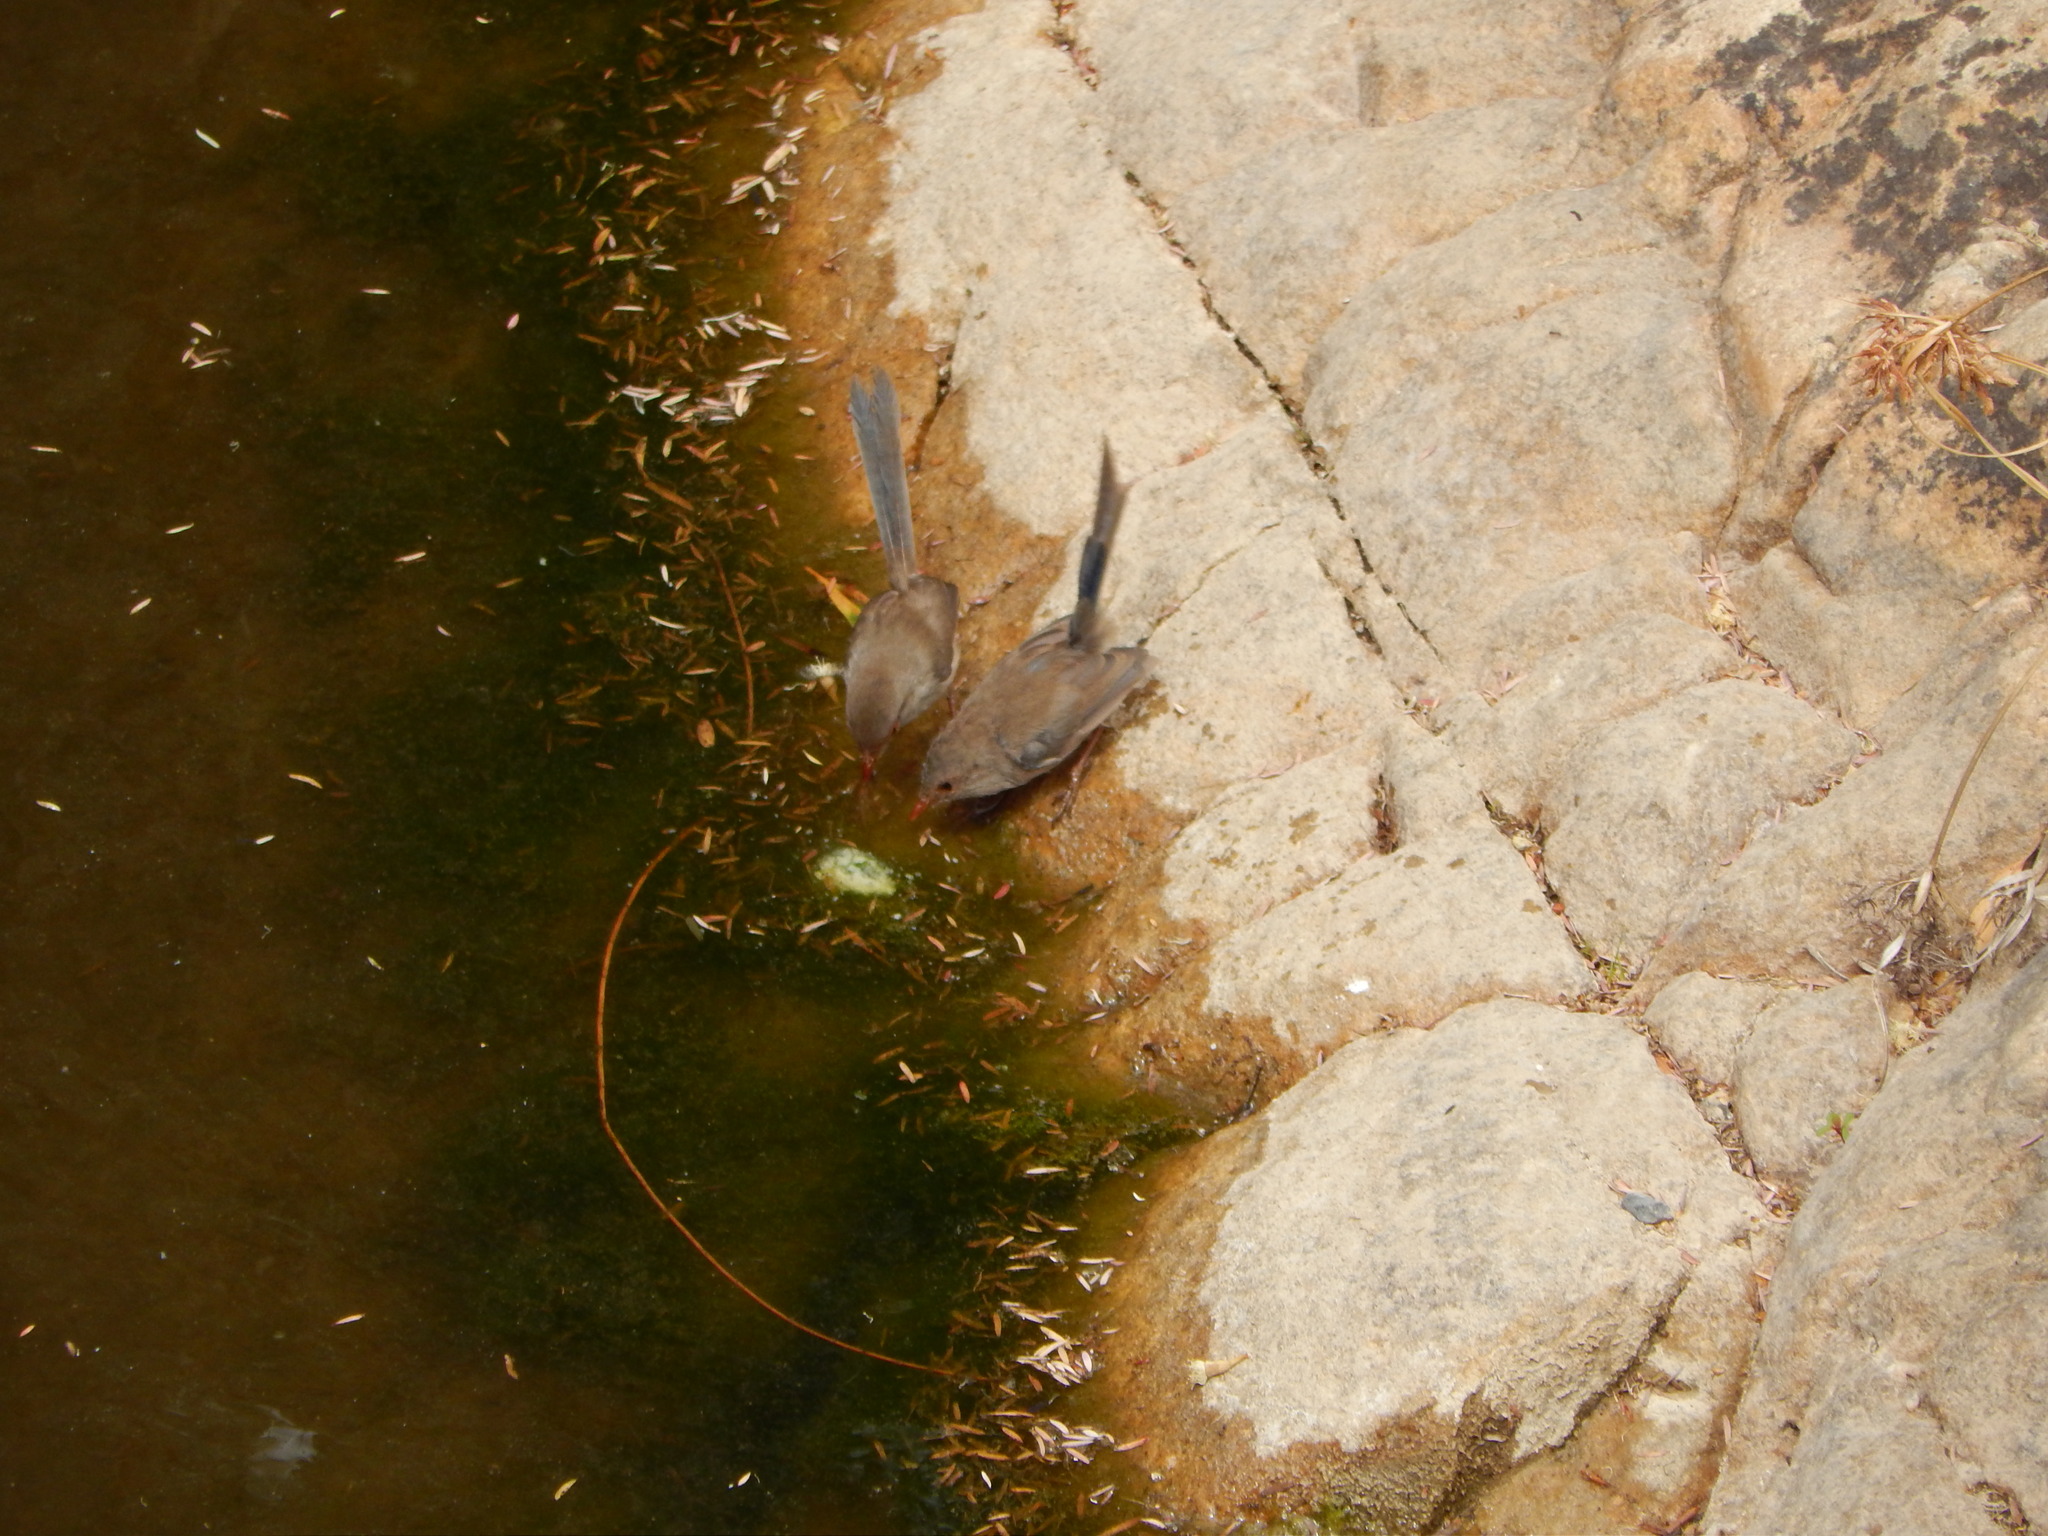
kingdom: Animalia
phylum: Chordata
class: Aves
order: Passeriformes
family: Maluridae
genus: Malurus
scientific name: Malurus cyaneus
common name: Superb fairywren
